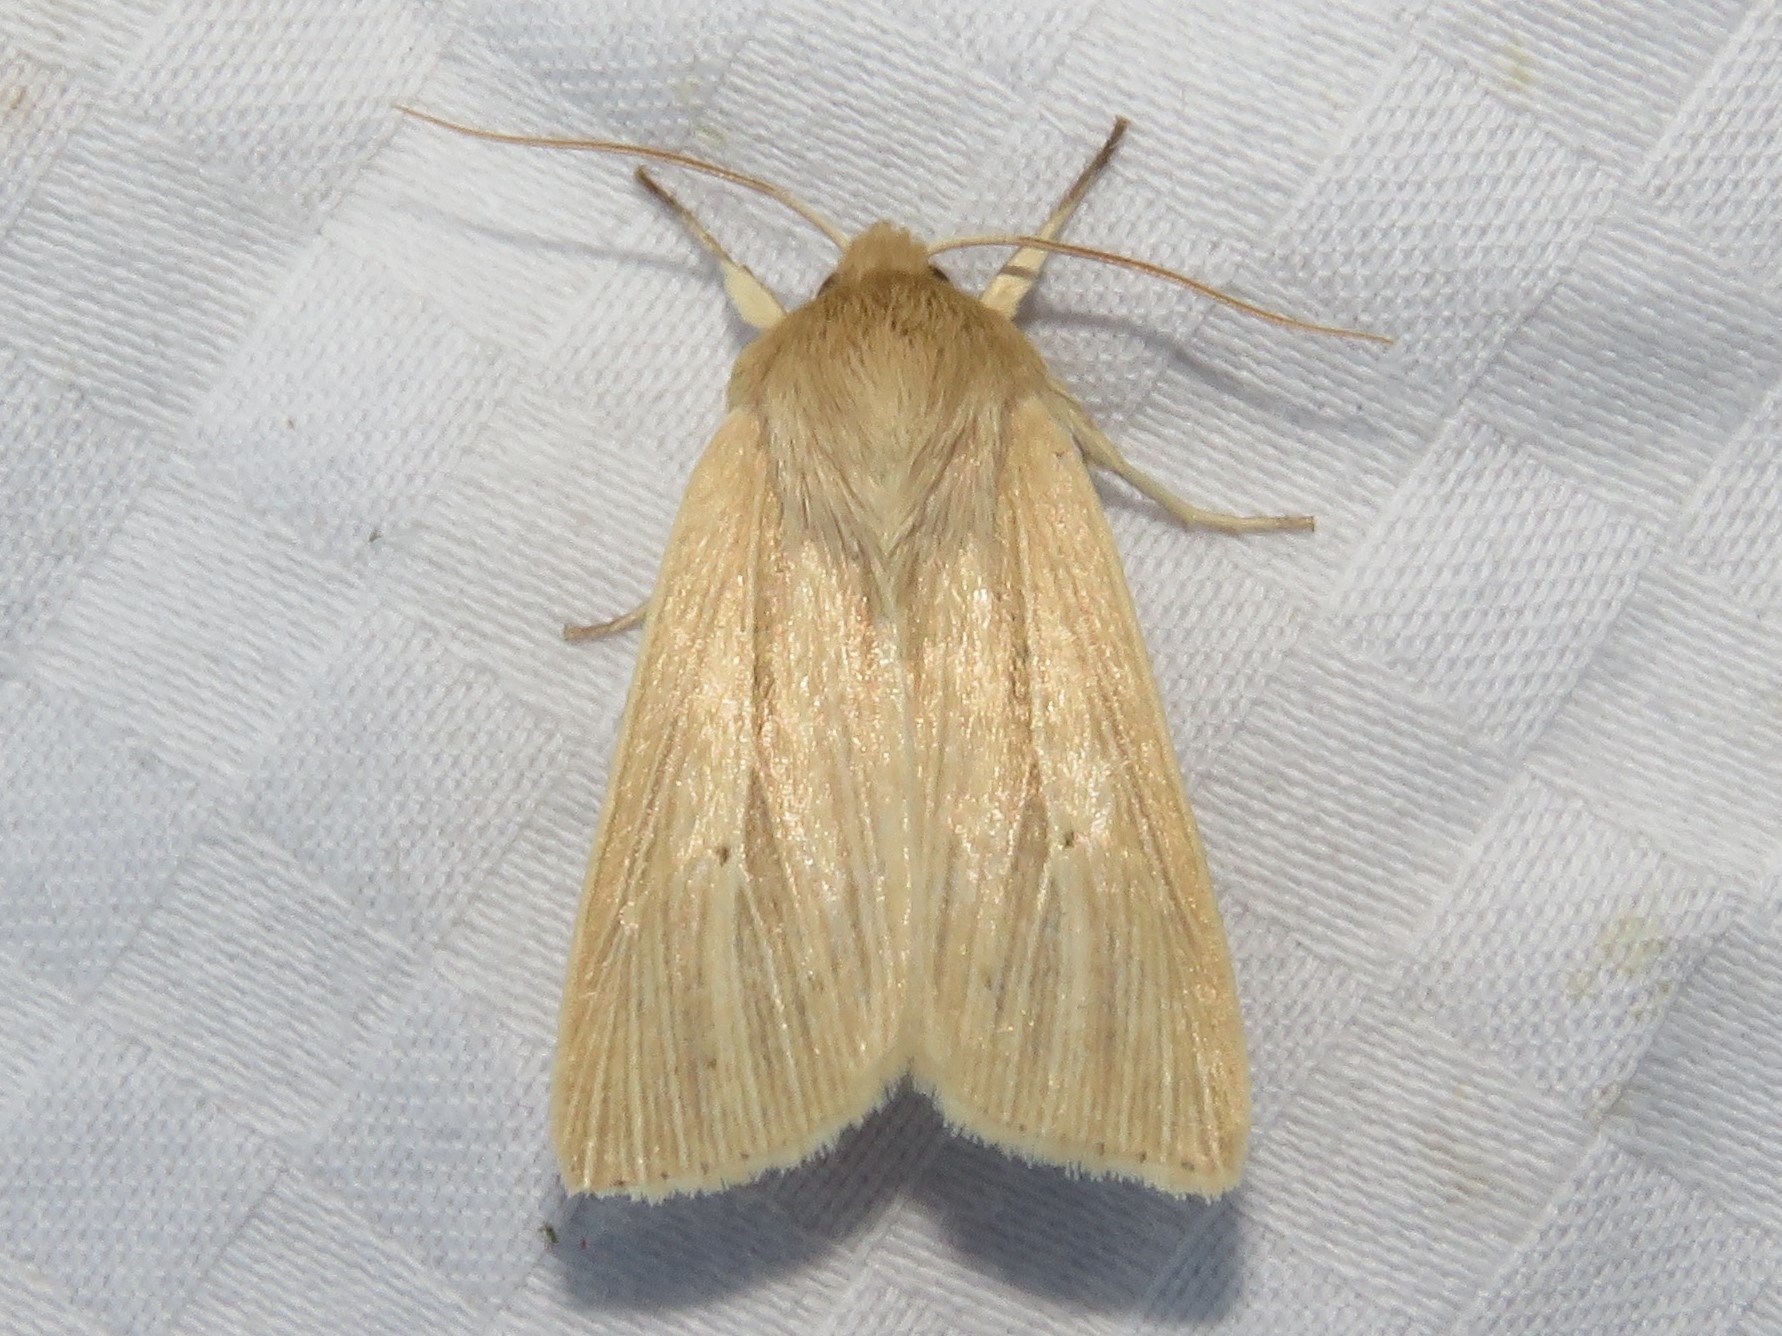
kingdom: Animalia
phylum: Arthropoda
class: Insecta
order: Lepidoptera
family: Noctuidae
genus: Mythimna
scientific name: Mythimna oxygala
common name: Lesser wainscot
